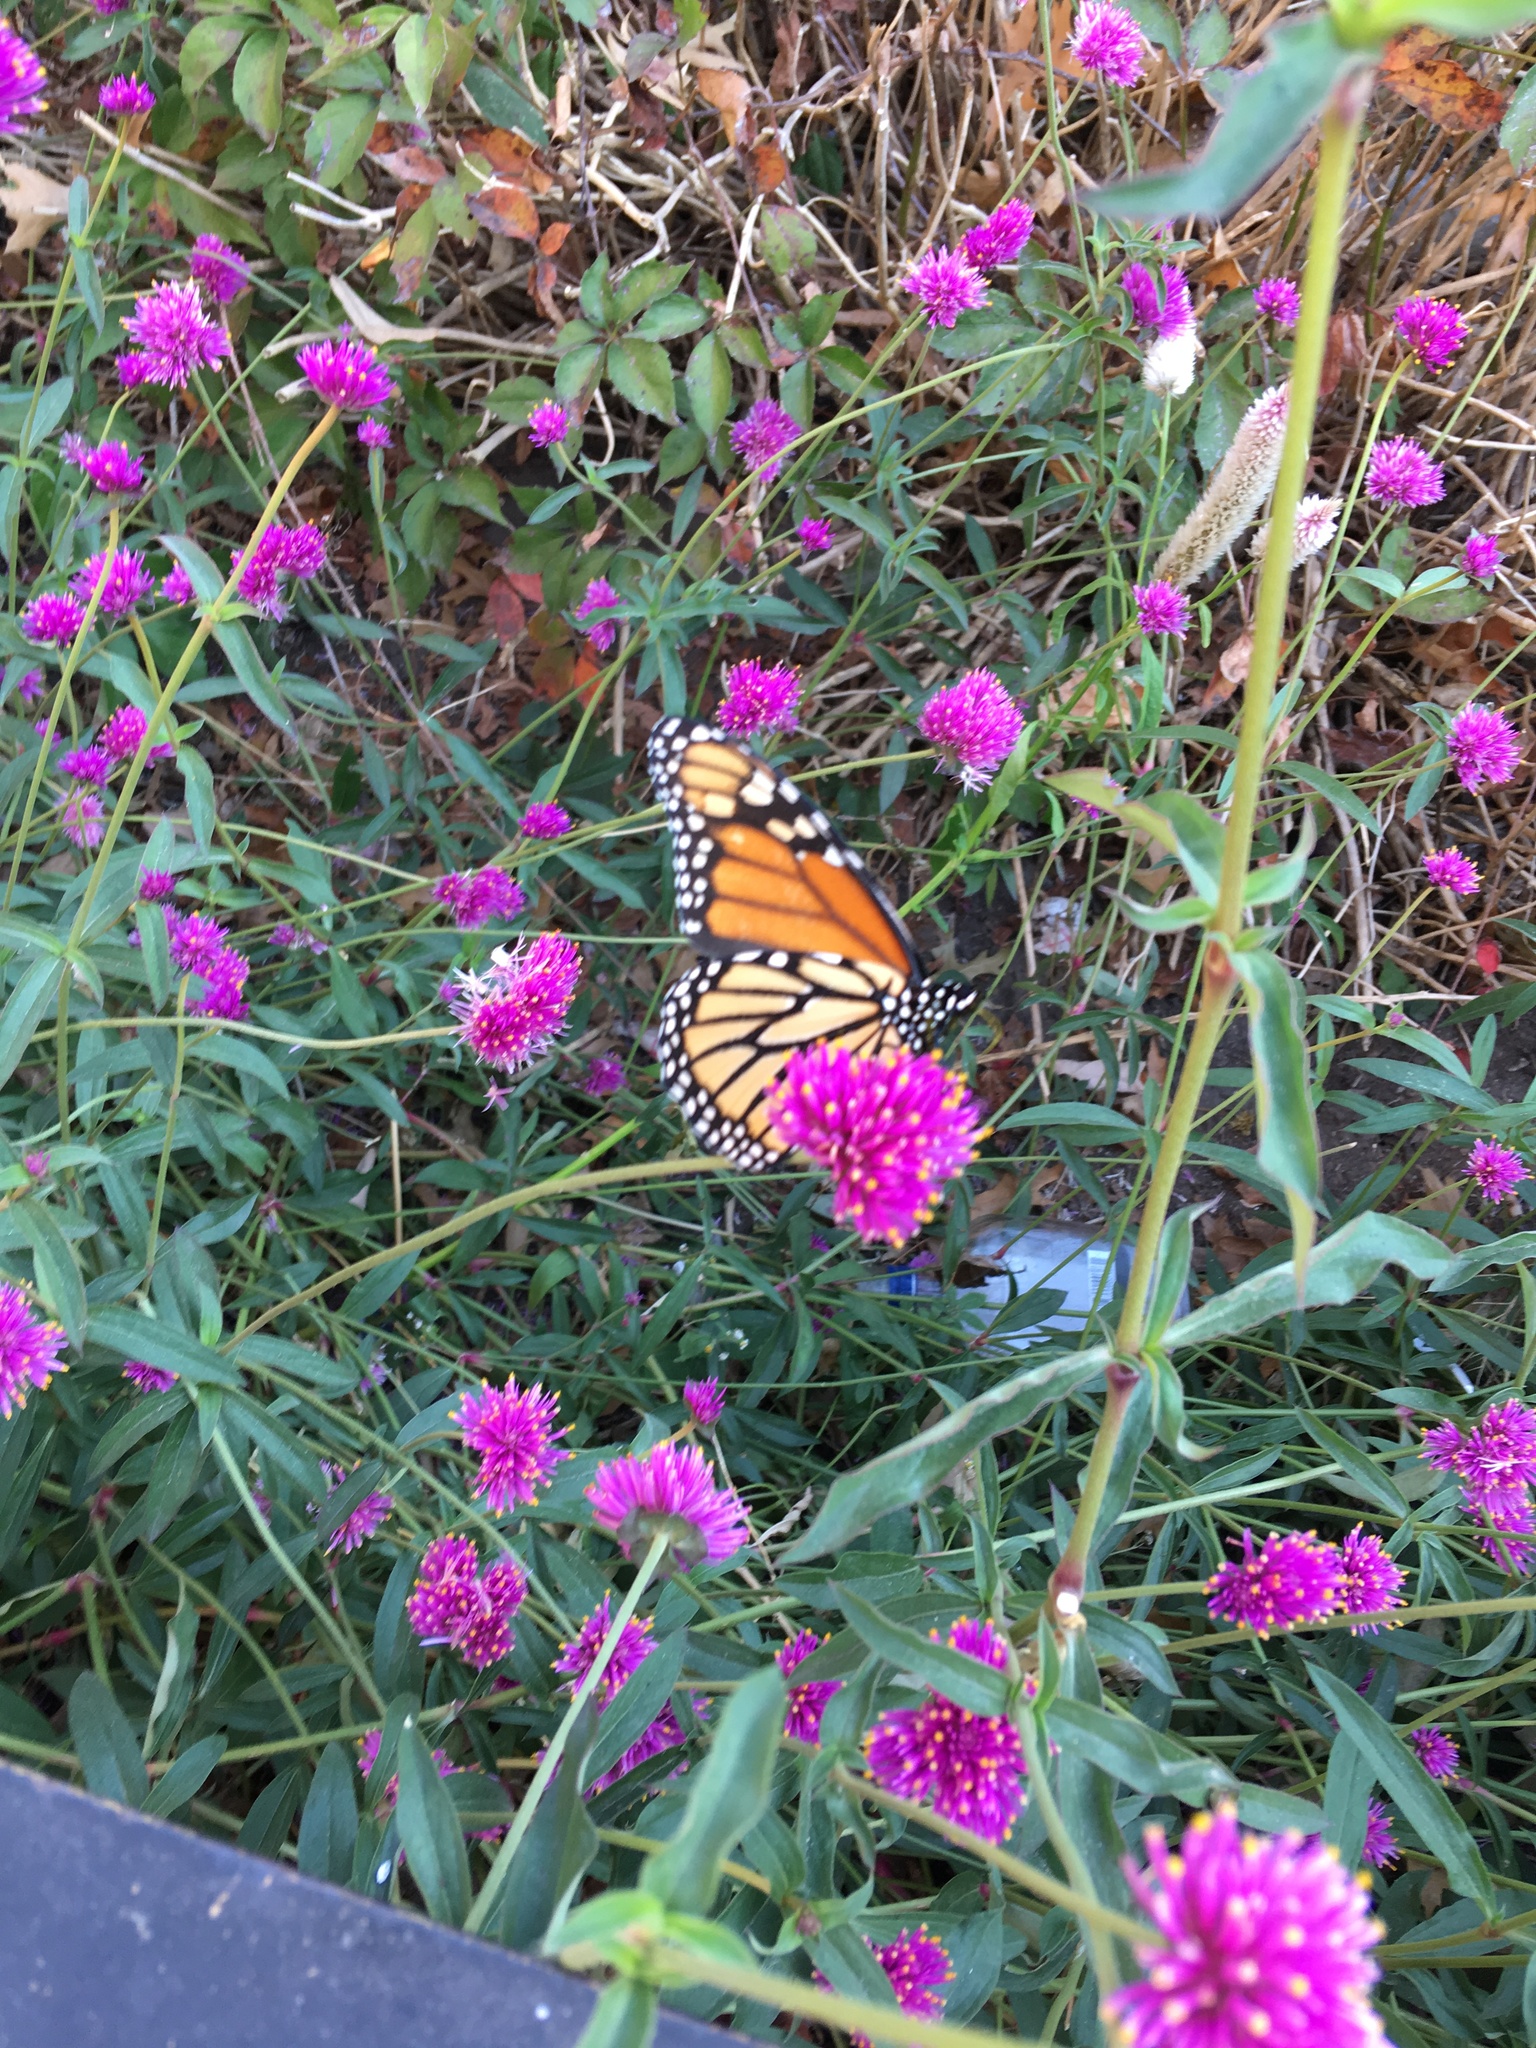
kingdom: Animalia
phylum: Arthropoda
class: Insecta
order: Lepidoptera
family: Nymphalidae
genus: Danaus
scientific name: Danaus plexippus
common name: Monarch
